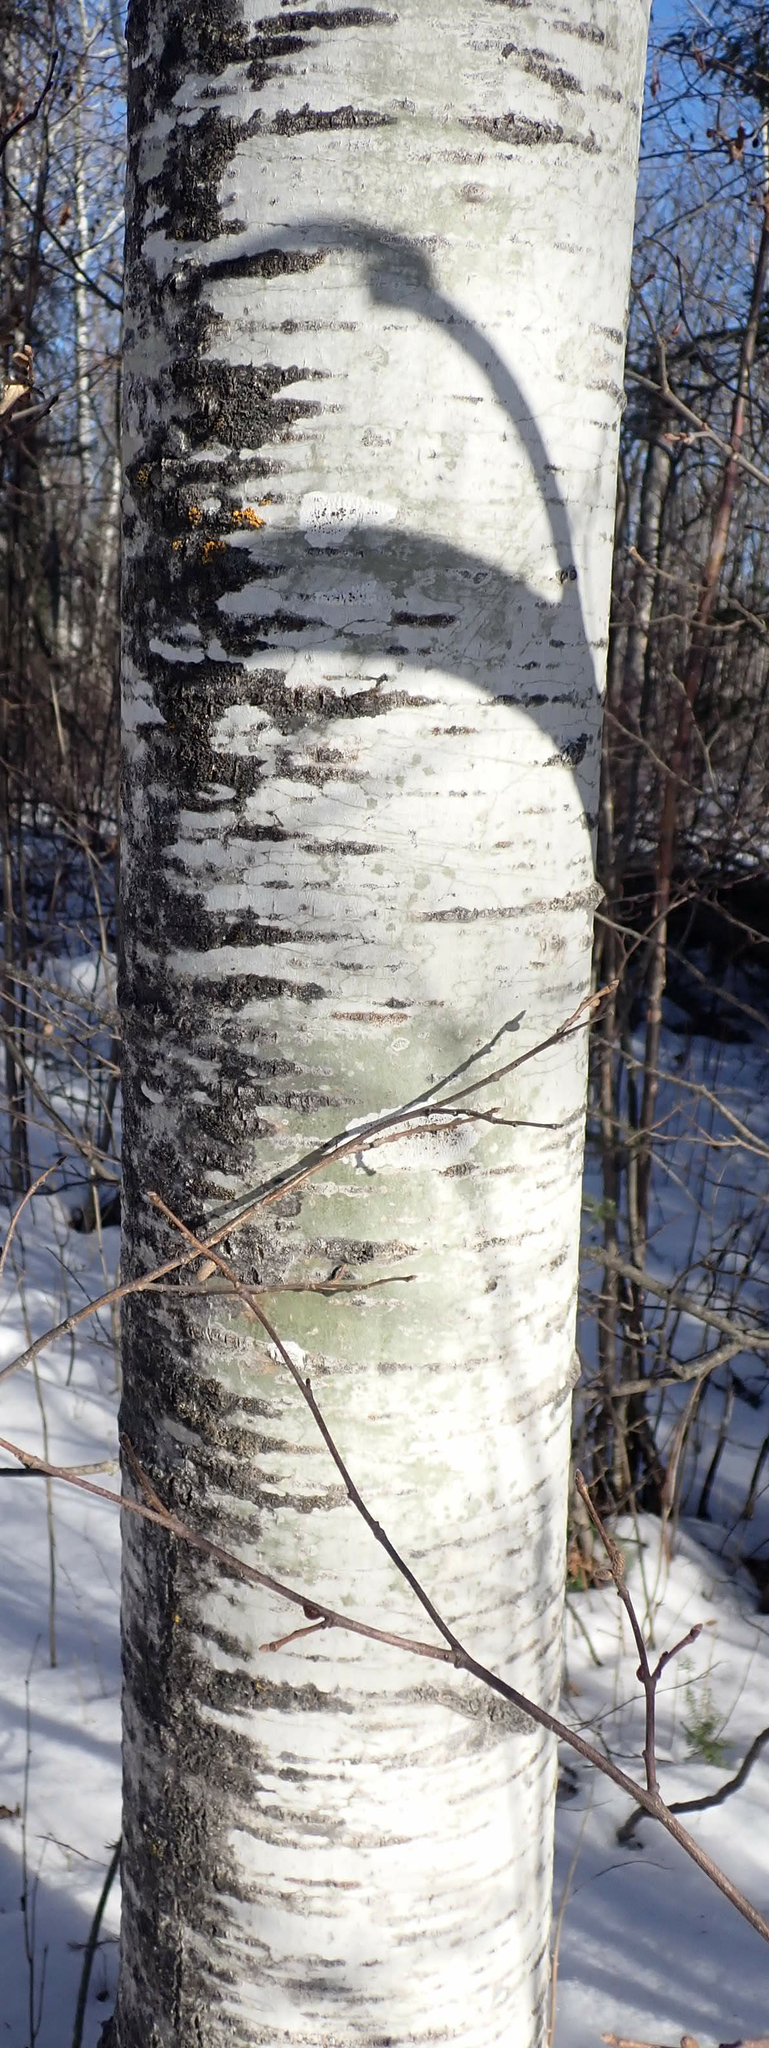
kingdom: Plantae
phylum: Tracheophyta
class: Magnoliopsida
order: Malpighiales
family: Salicaceae
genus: Populus
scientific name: Populus tremuloides
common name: Quaking aspen
